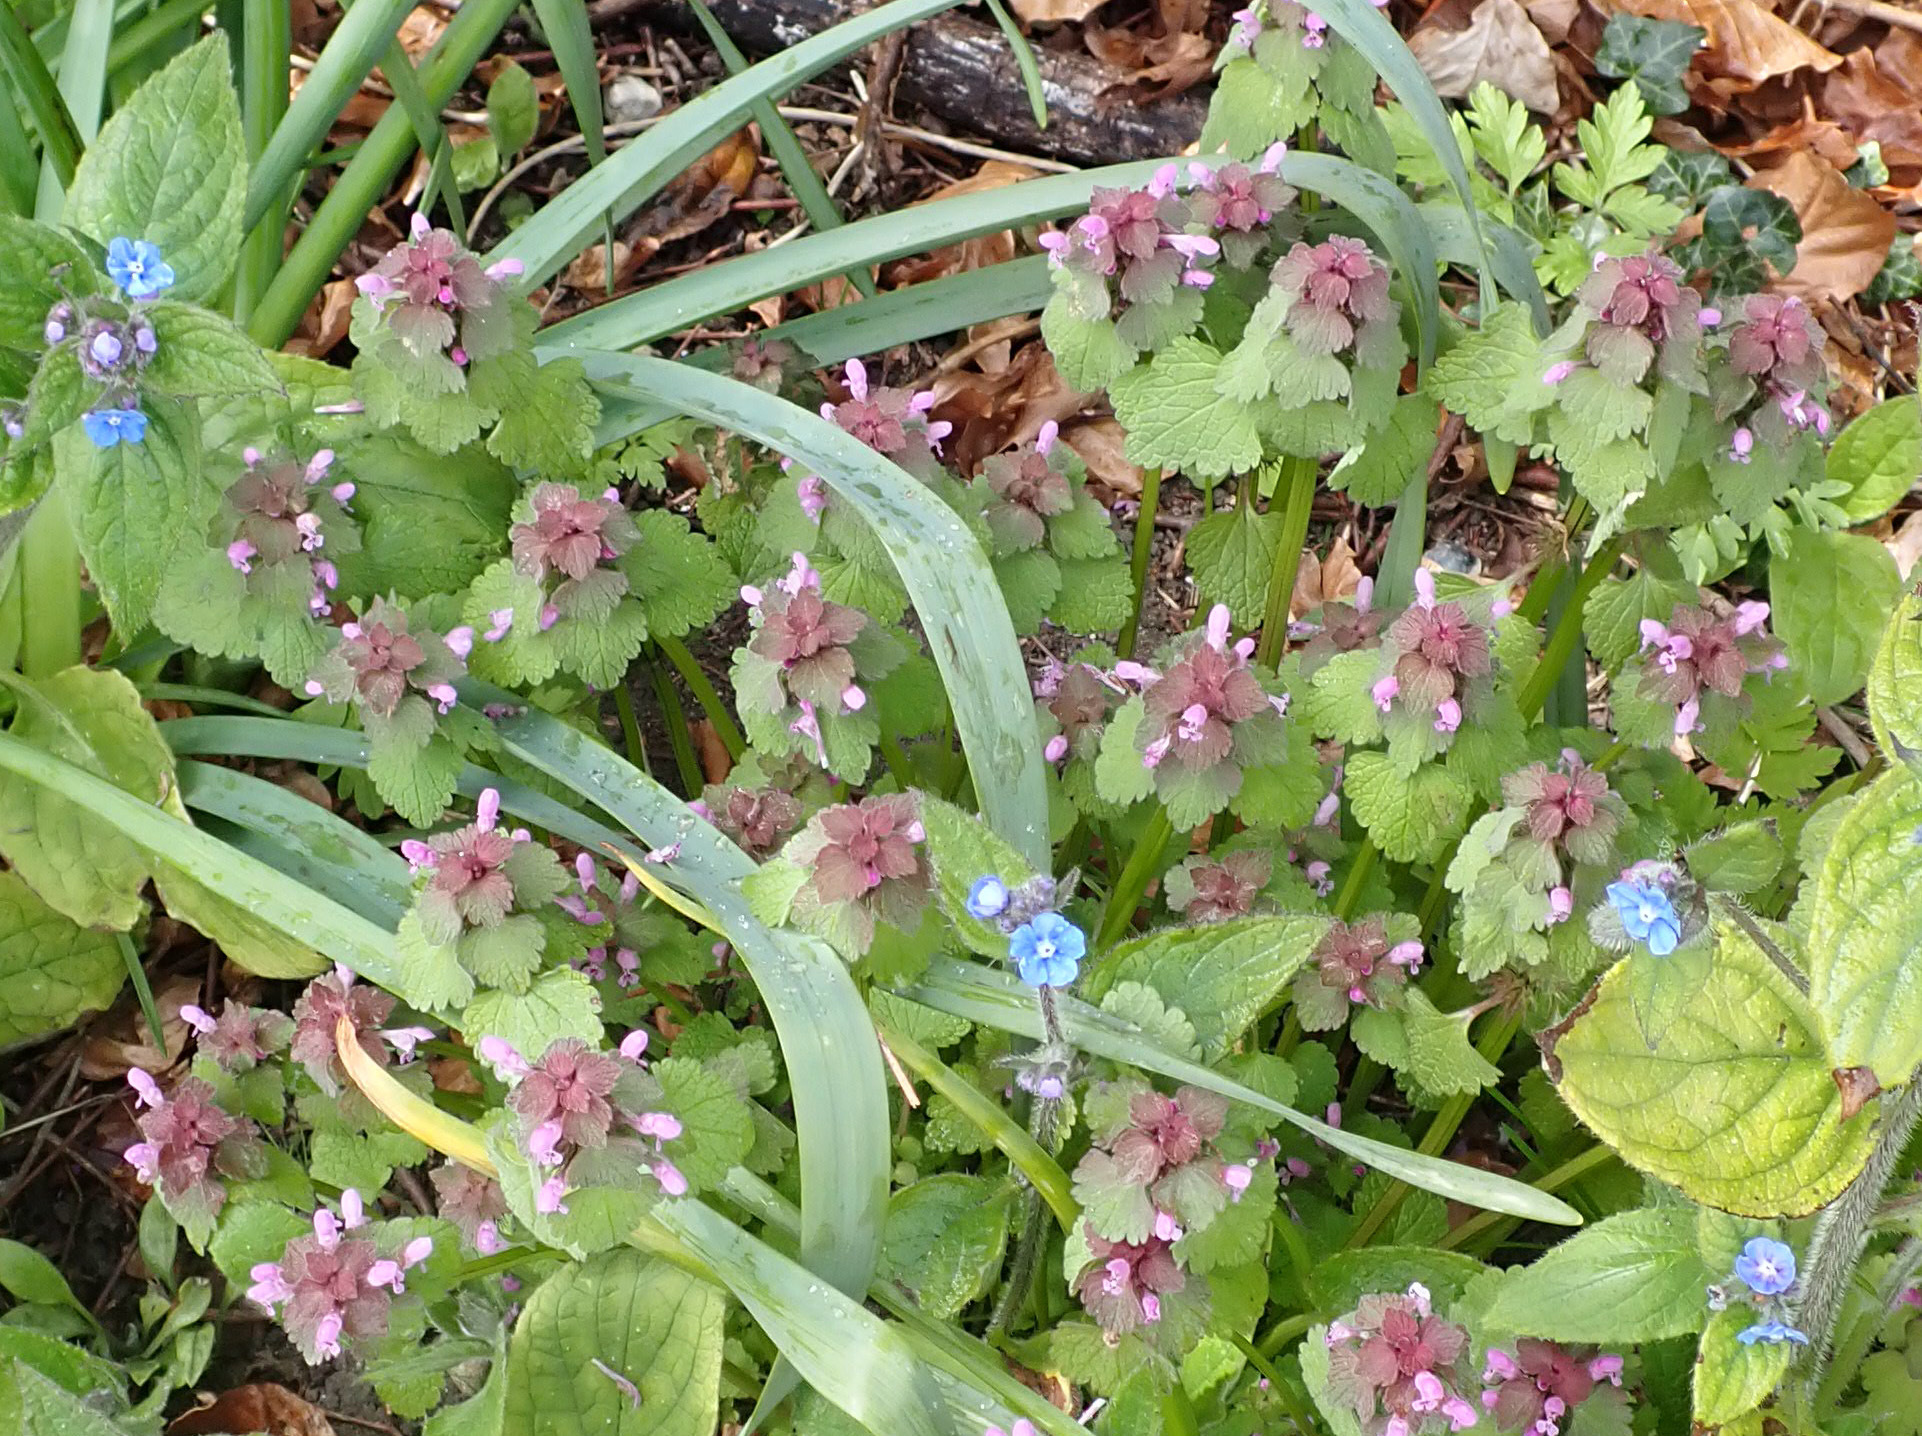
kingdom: Plantae
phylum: Tracheophyta
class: Magnoliopsida
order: Lamiales
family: Lamiaceae
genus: Lamium
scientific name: Lamium purpureum
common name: Red dead-nettle
